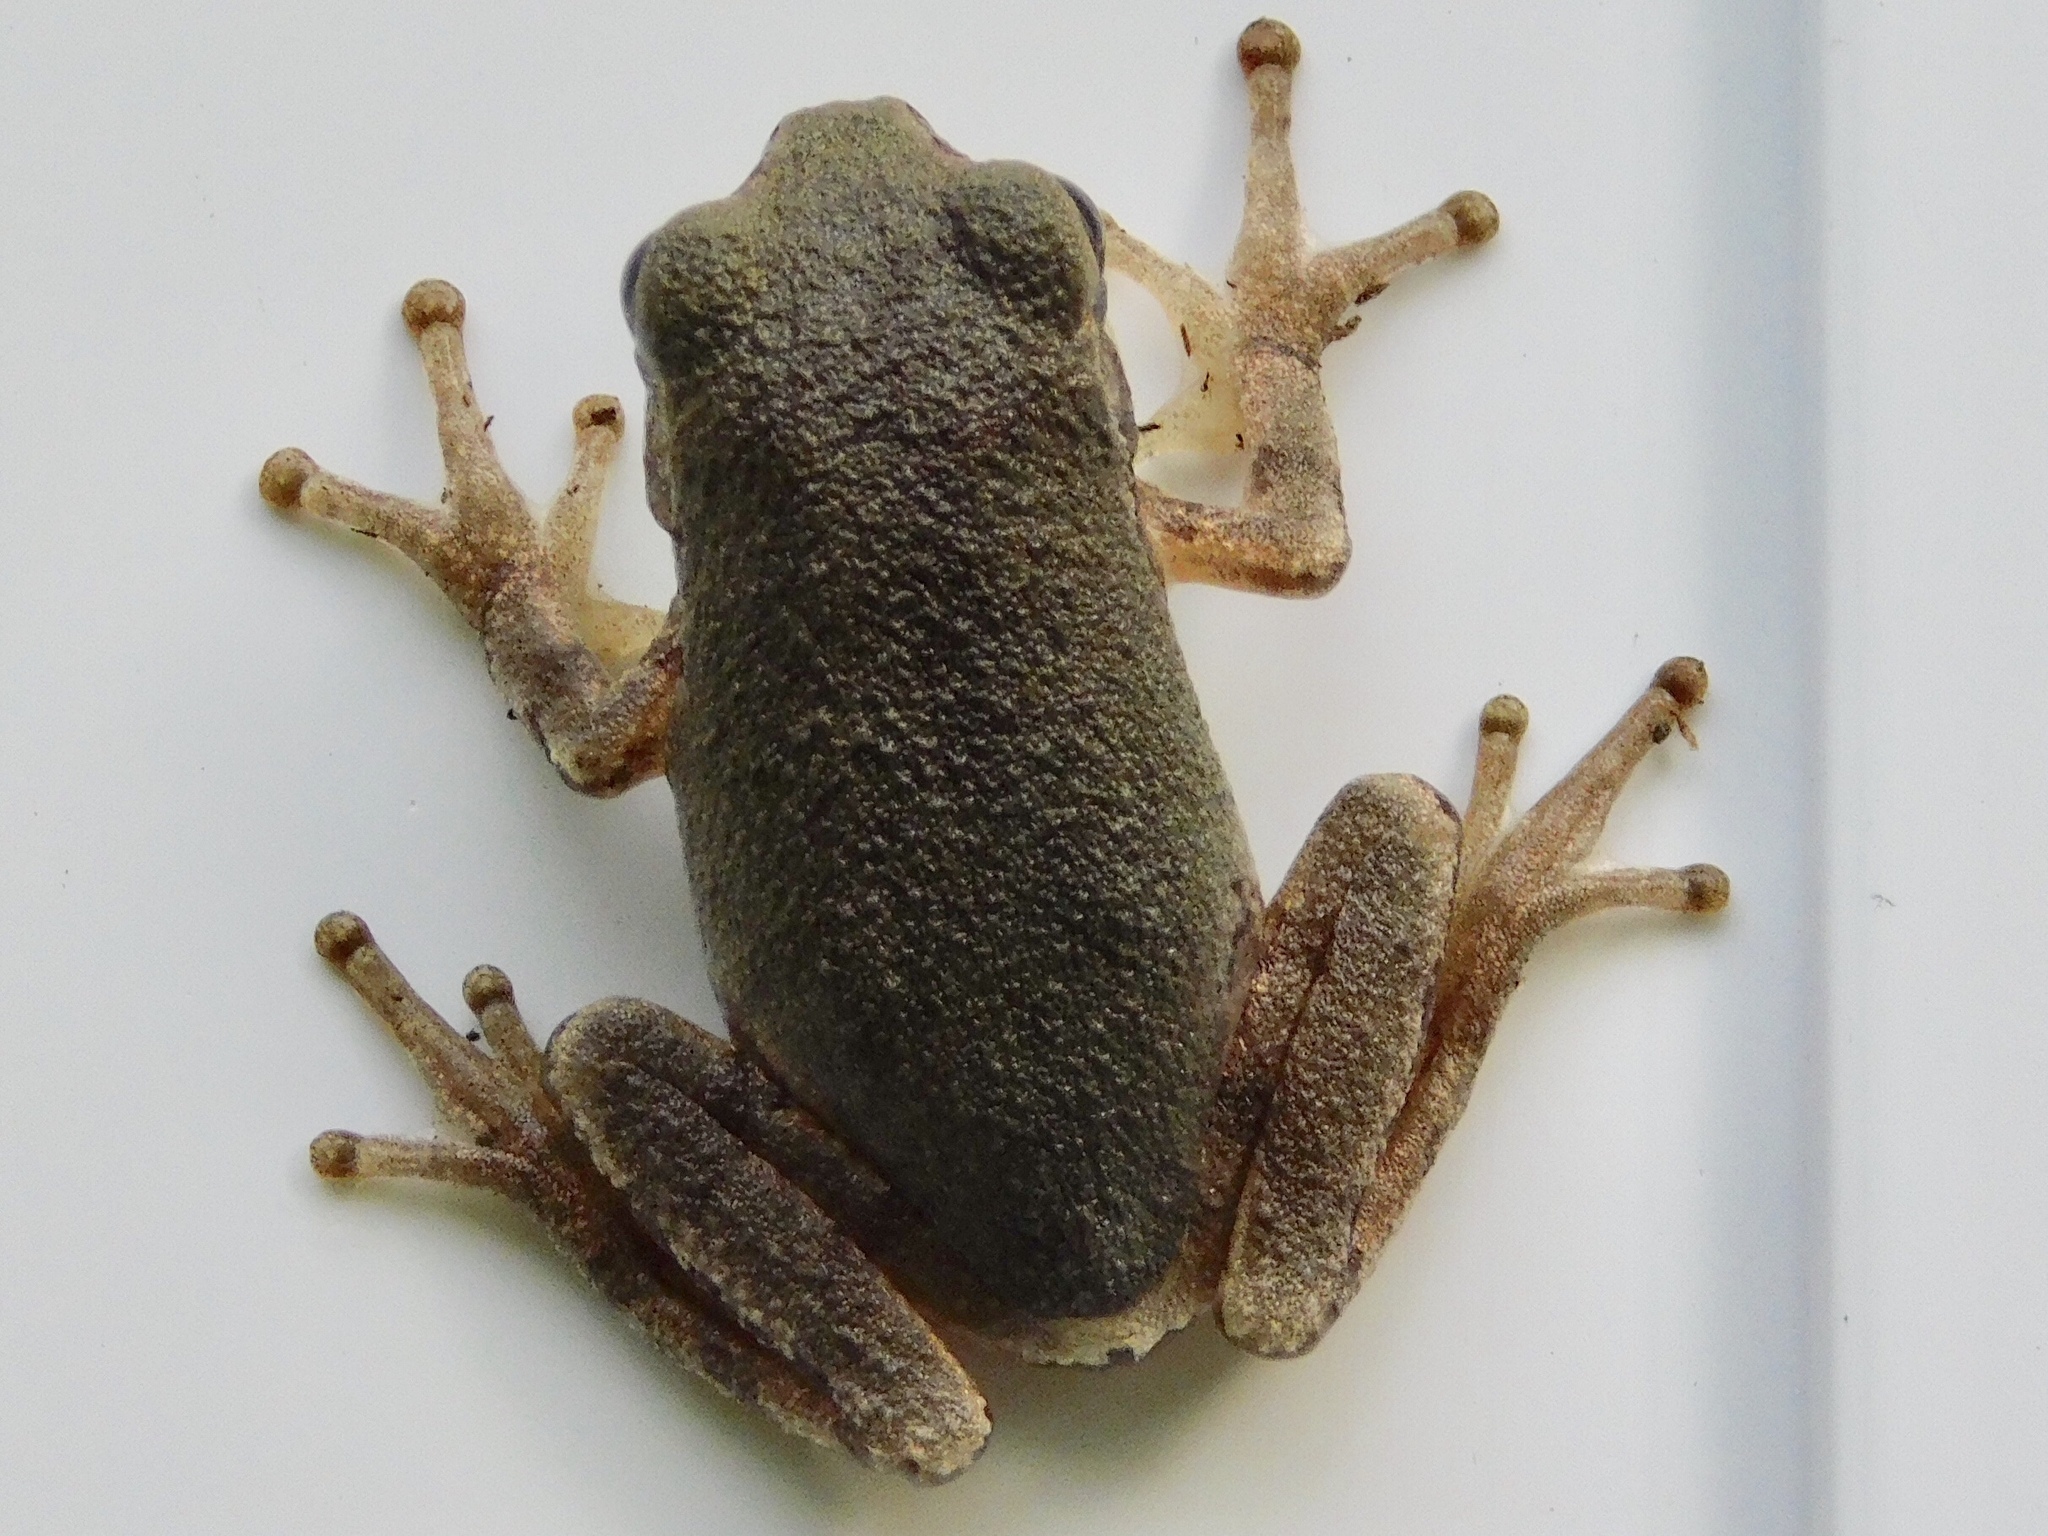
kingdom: Animalia
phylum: Chordata
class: Amphibia
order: Anura
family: Hylidae
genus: Hyla
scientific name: Hyla
